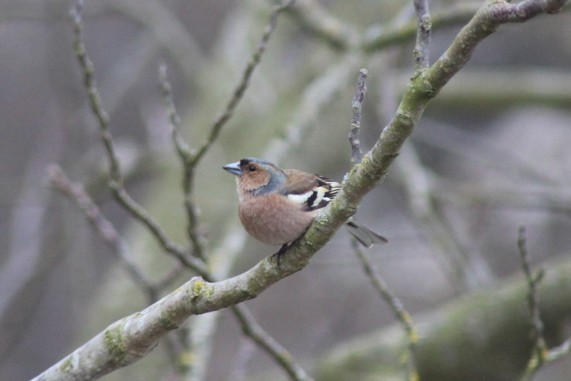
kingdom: Animalia
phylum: Chordata
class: Aves
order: Passeriformes
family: Fringillidae
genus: Fringilla
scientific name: Fringilla coelebs
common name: Common chaffinch
